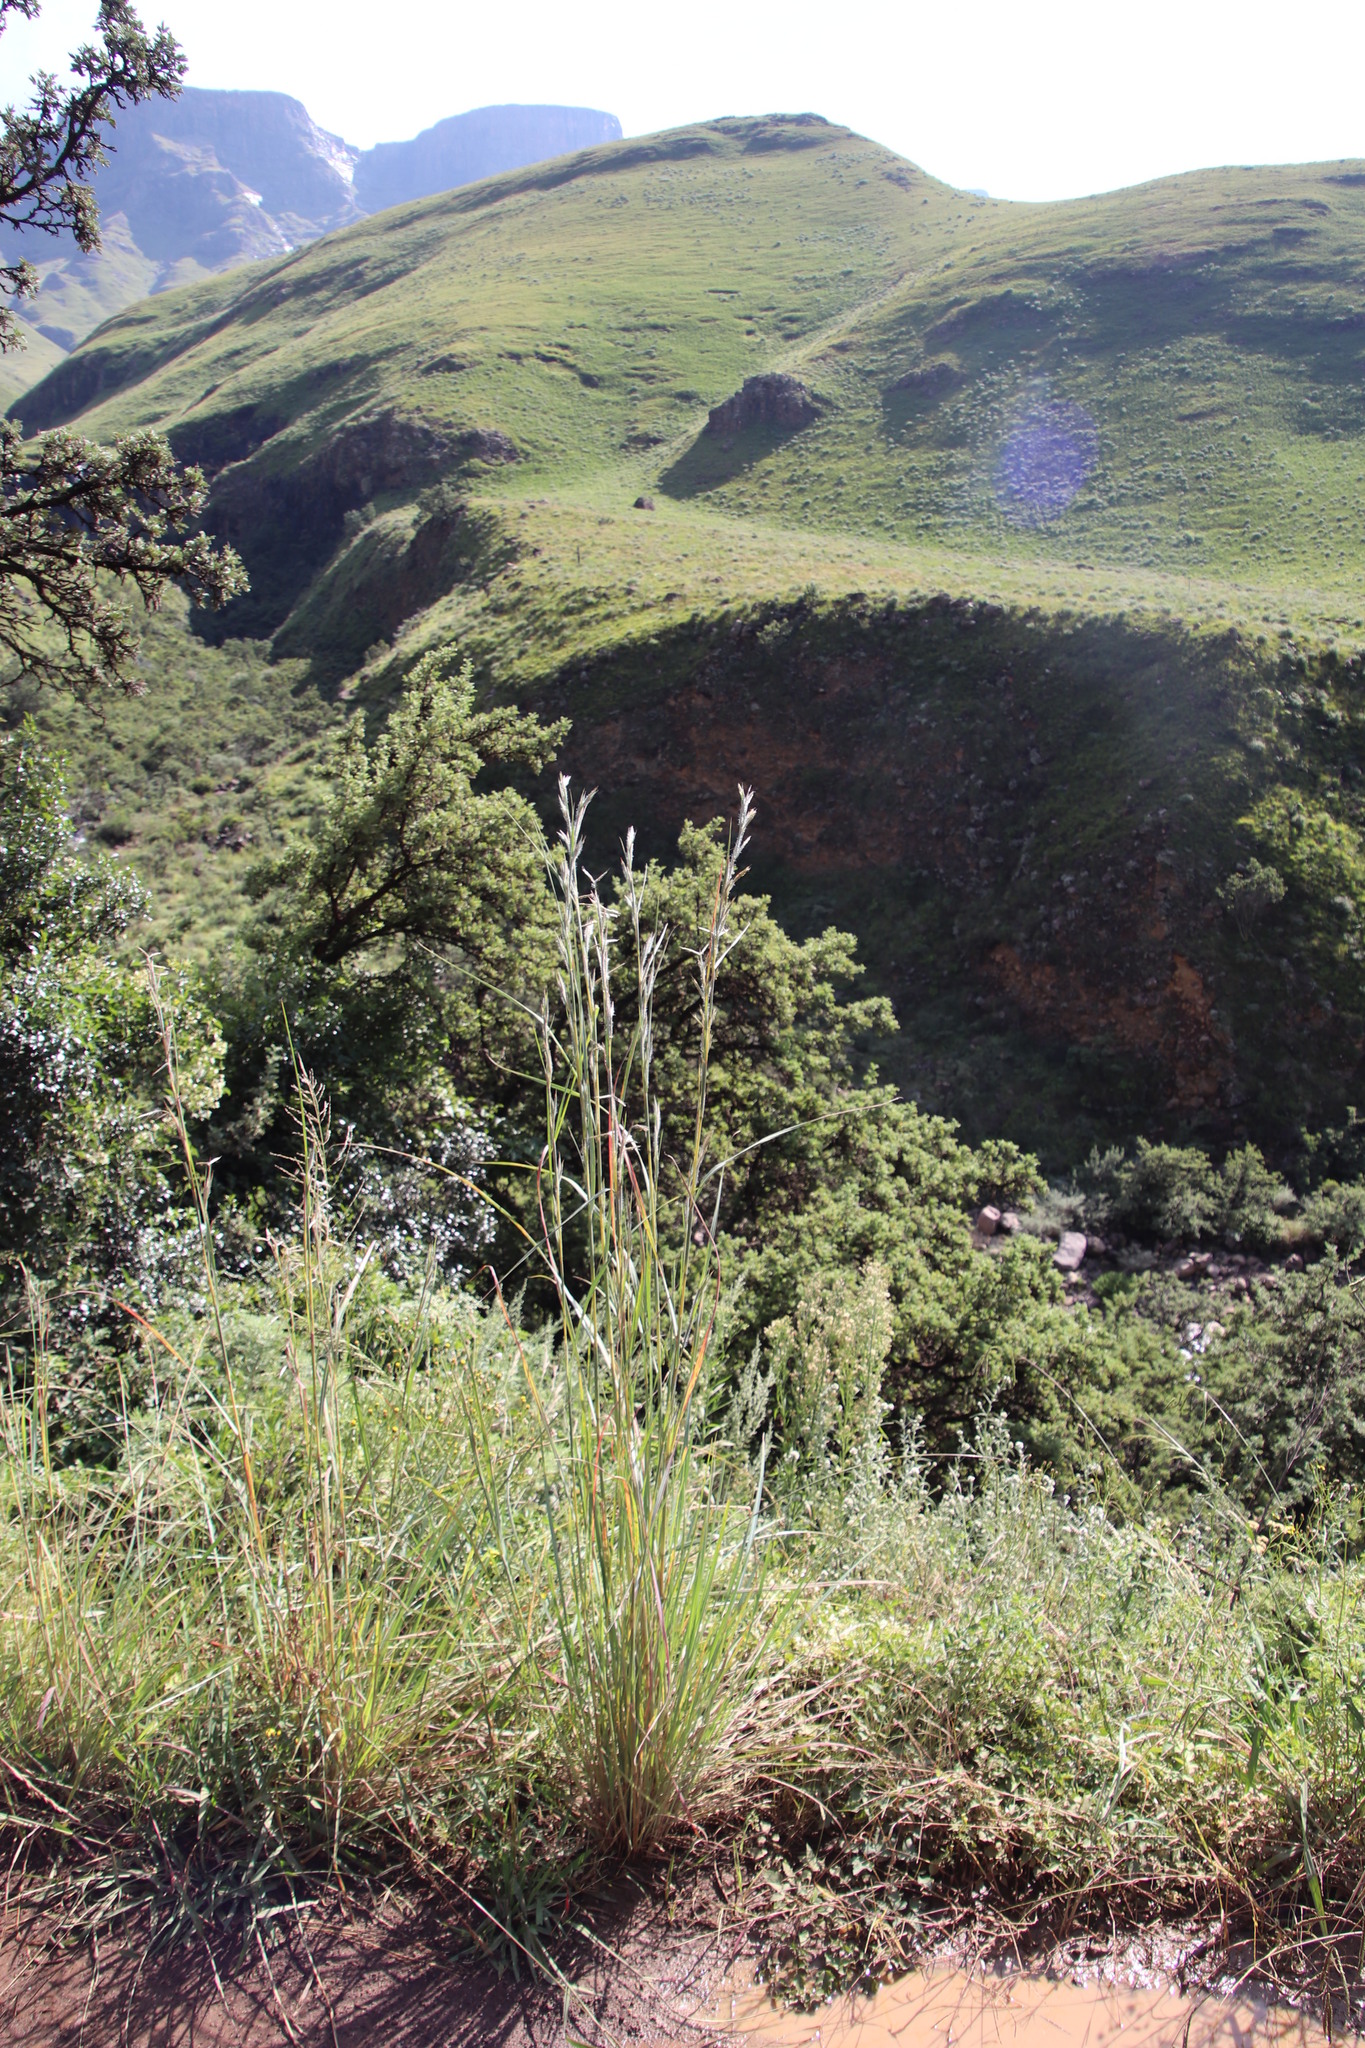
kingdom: Plantae
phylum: Tracheophyta
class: Liliopsida
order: Poales
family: Poaceae
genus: Hyparrhenia
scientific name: Hyparrhenia hirta
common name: Thatching grass
